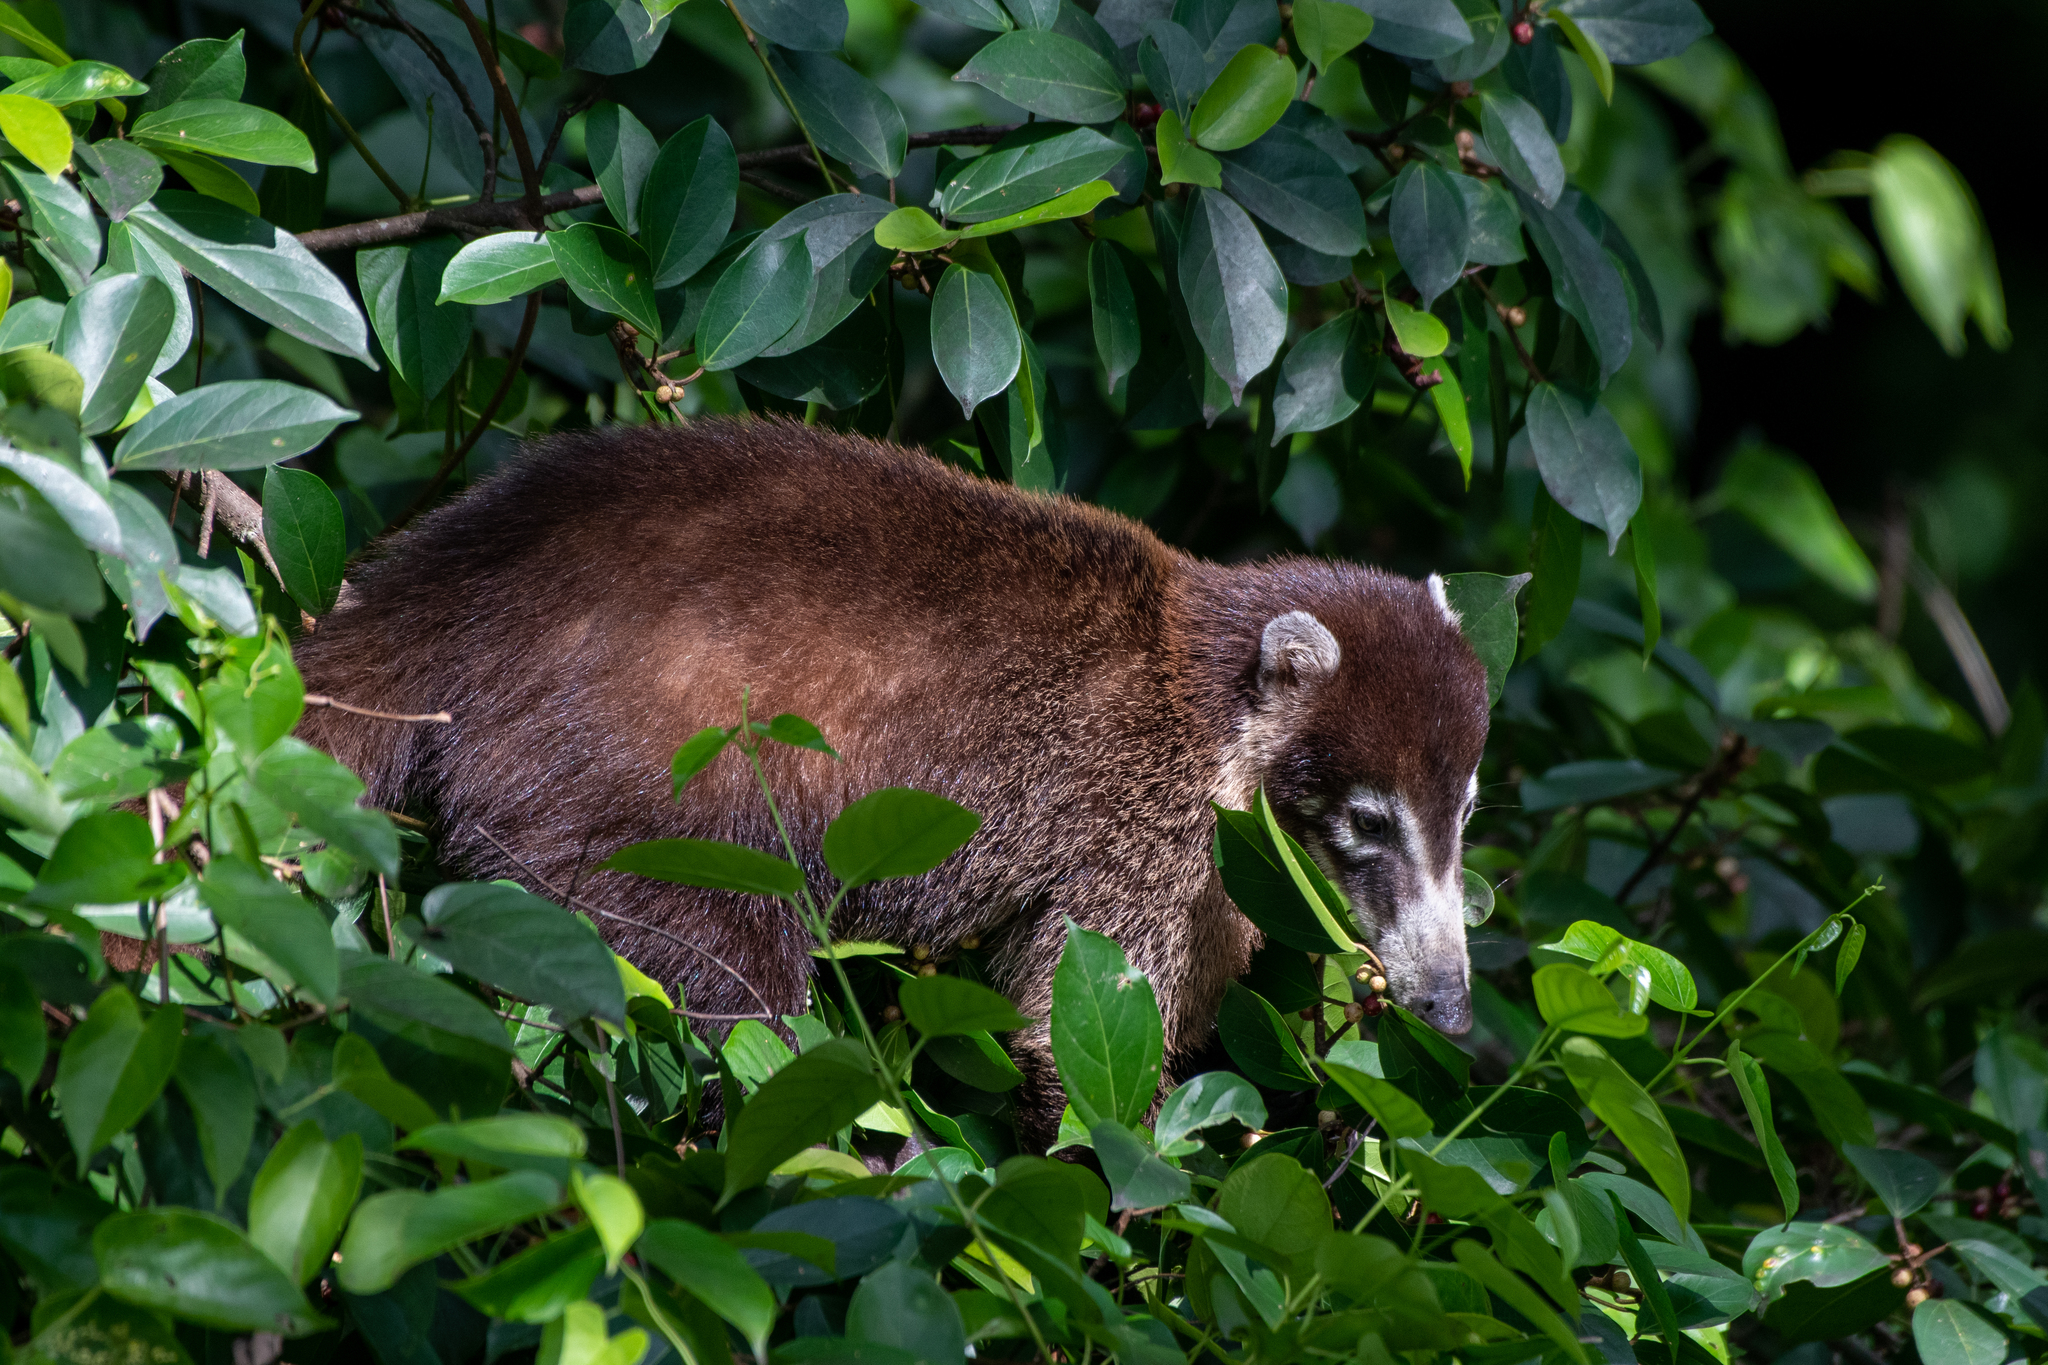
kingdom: Animalia
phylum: Chordata
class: Mammalia
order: Carnivora
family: Procyonidae
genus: Nasua
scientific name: Nasua narica
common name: White-nosed coati
